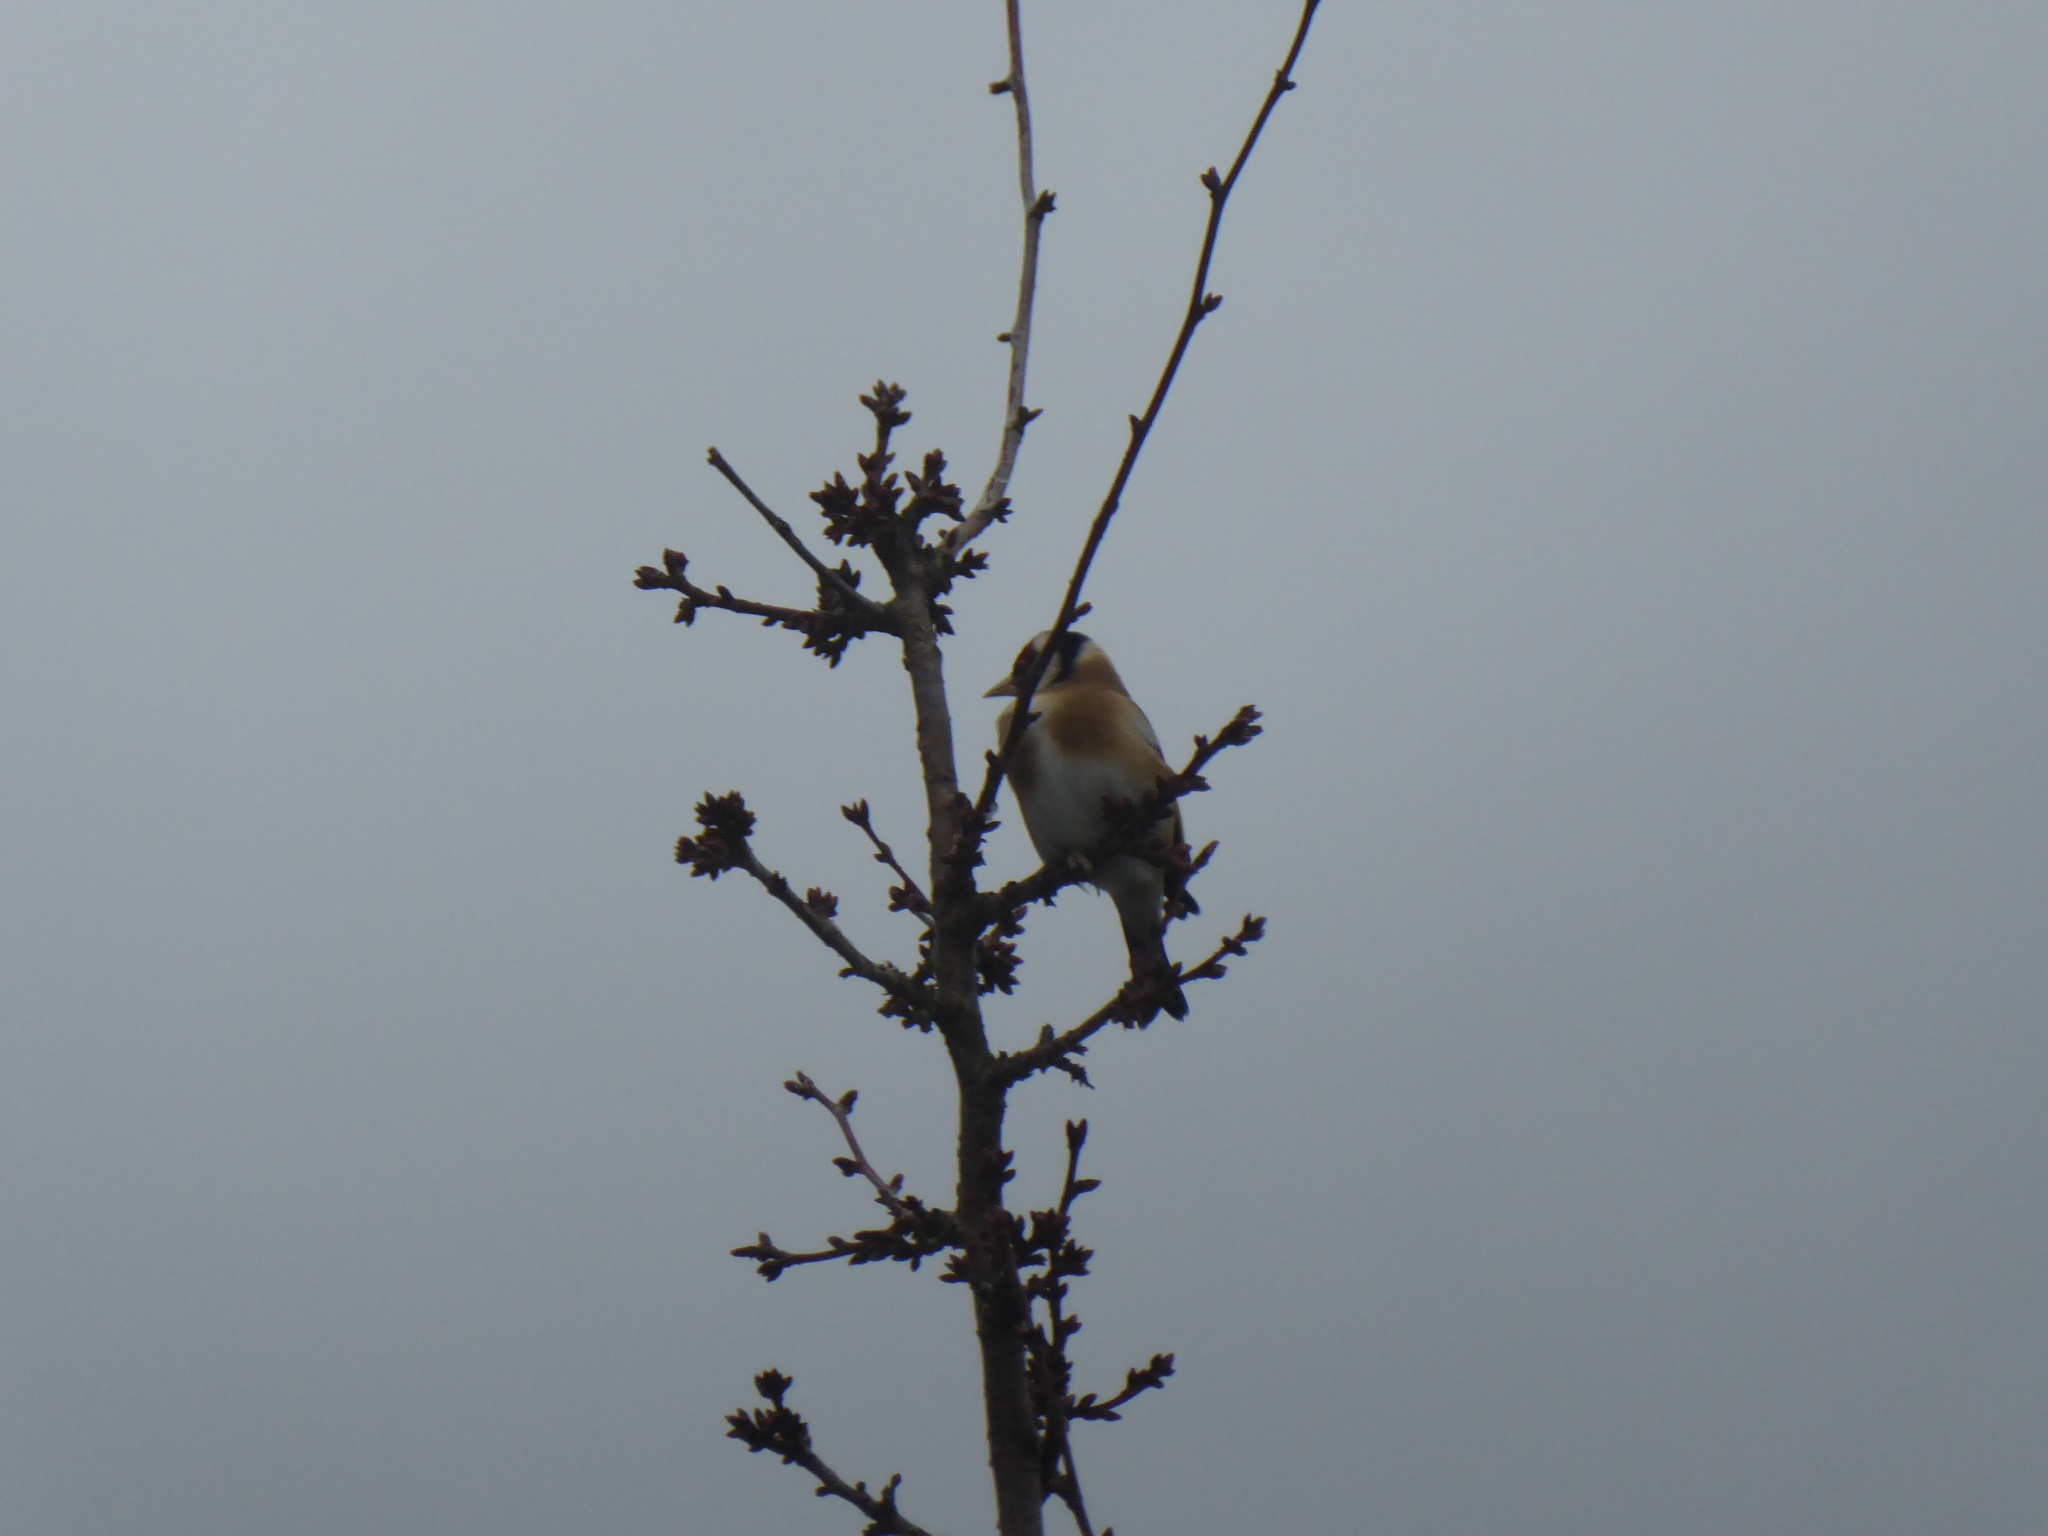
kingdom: Animalia
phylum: Chordata
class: Aves
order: Passeriformes
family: Fringillidae
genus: Carduelis
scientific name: Carduelis carduelis
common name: European goldfinch
